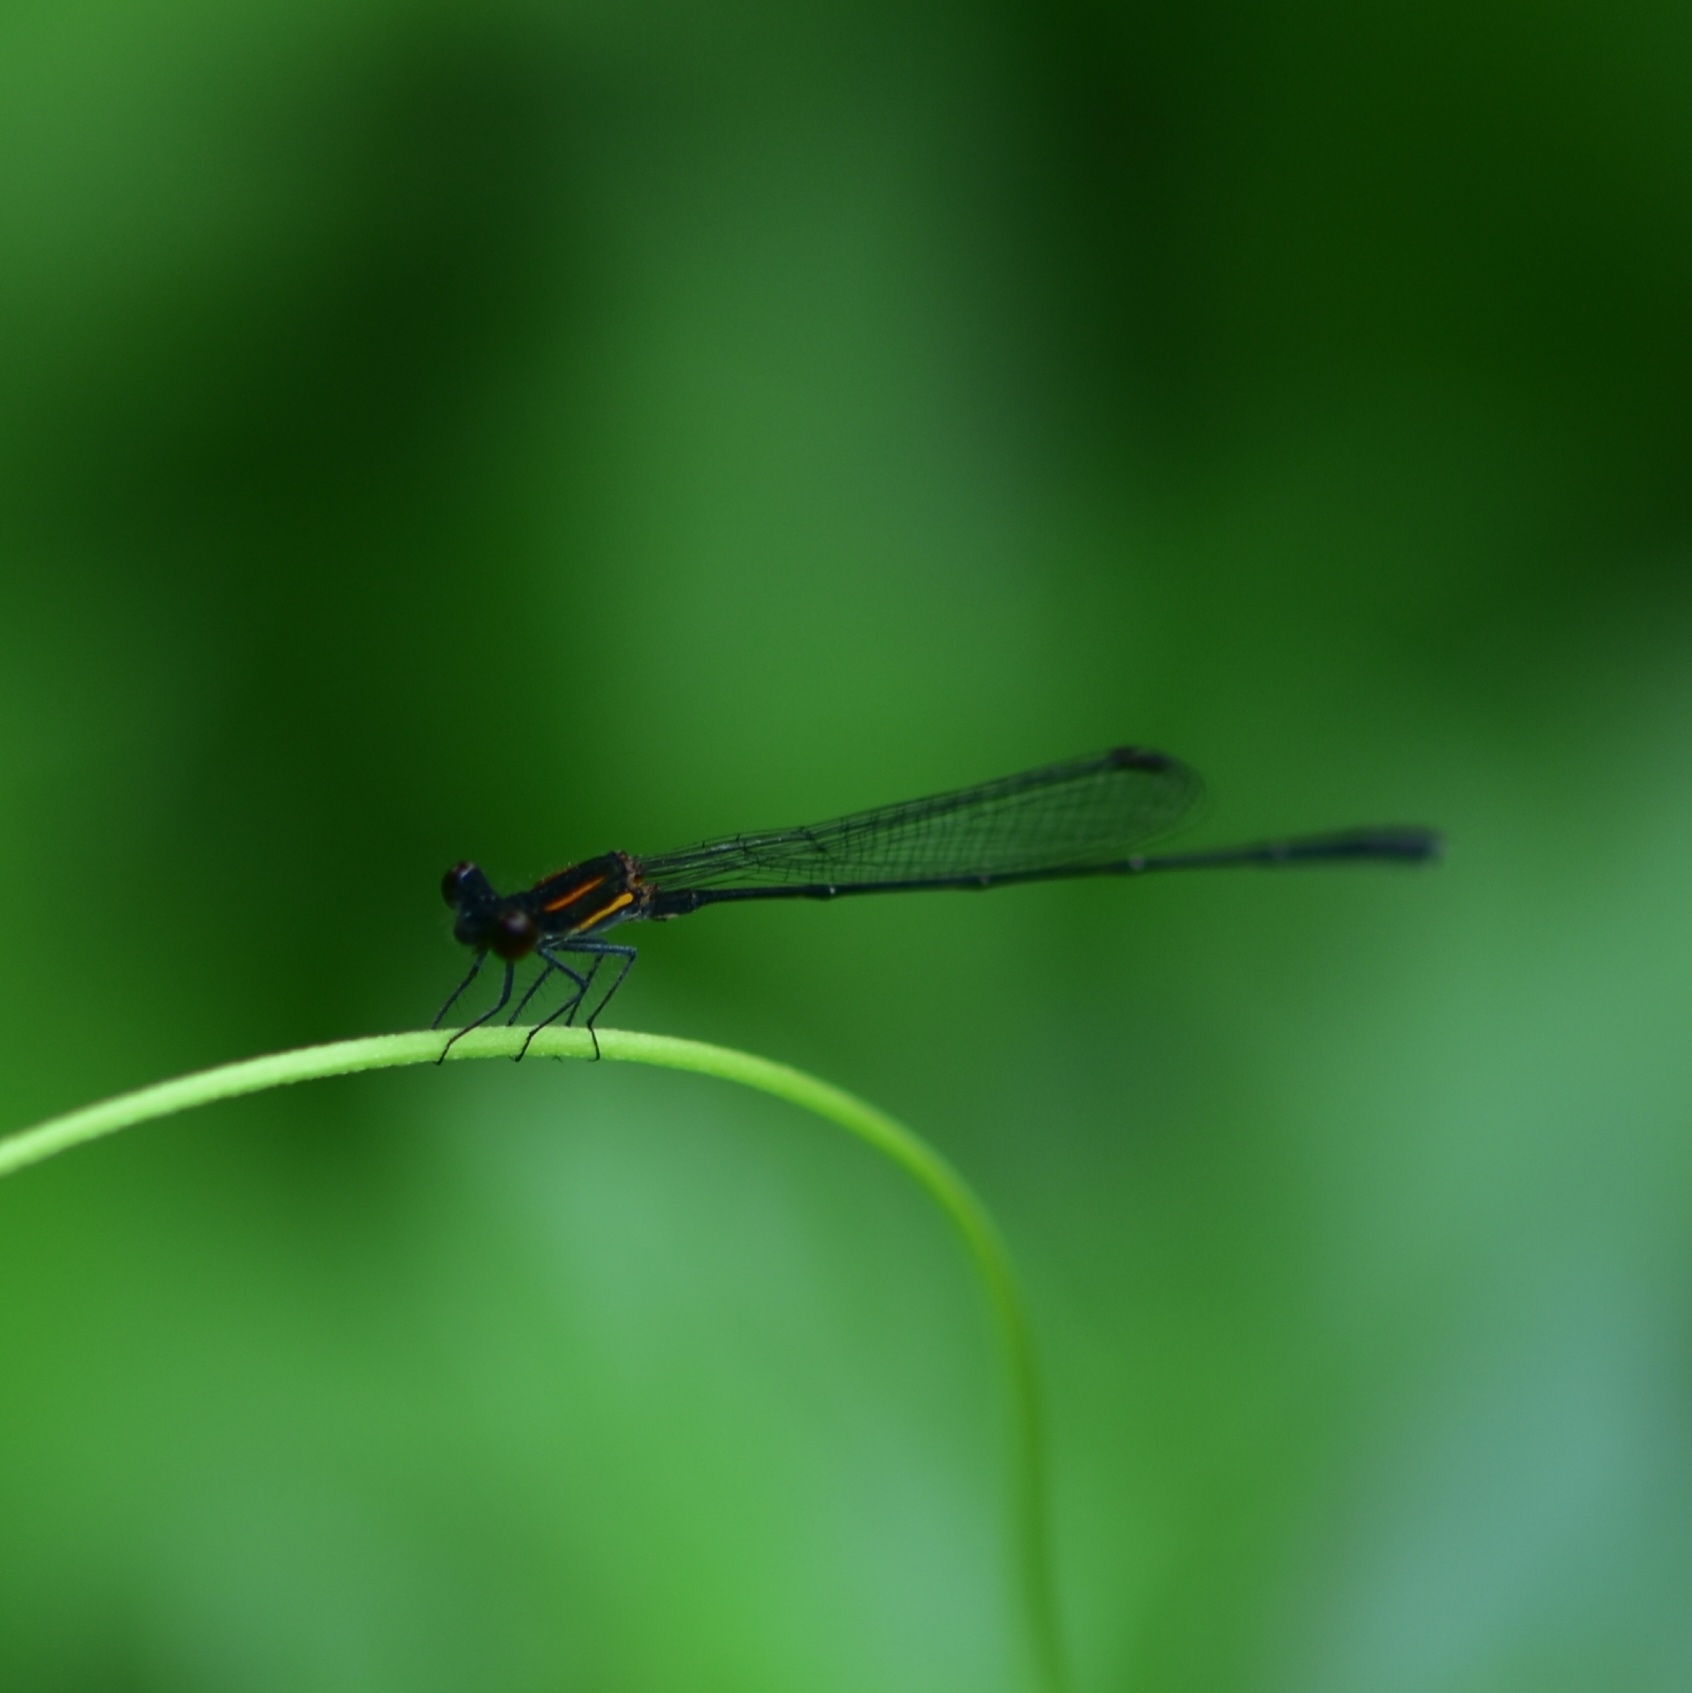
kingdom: Animalia
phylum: Arthropoda
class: Insecta
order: Odonata
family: Platycnemididae
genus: Prodasineura
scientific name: Prodasineura verticalis
